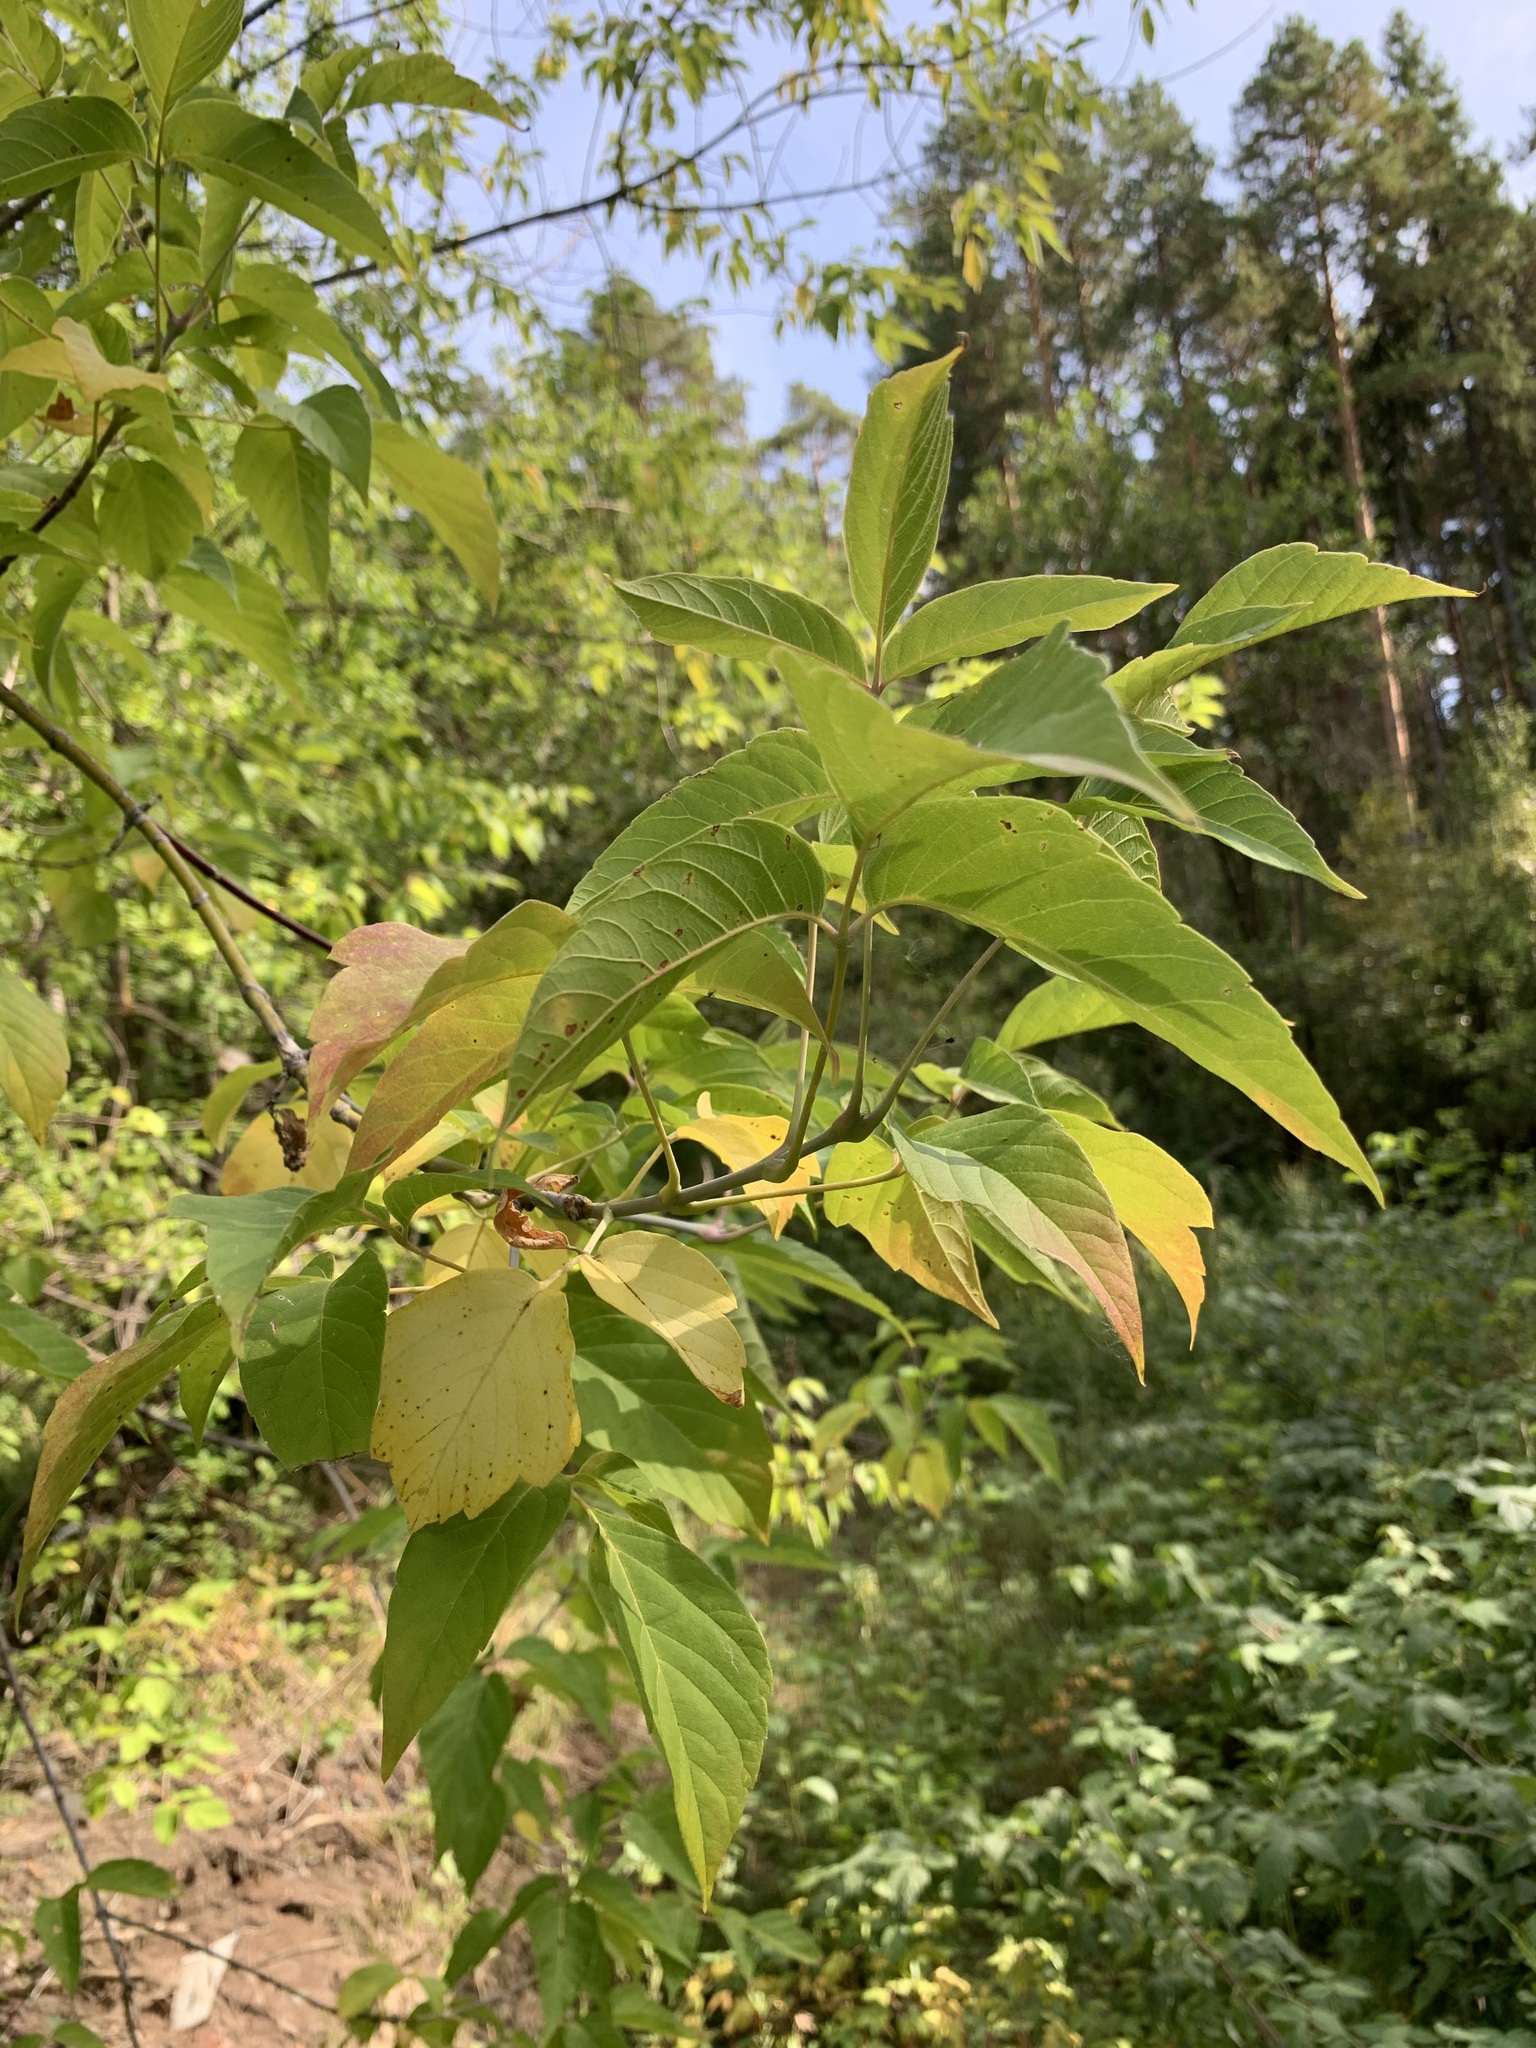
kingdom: Plantae
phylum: Tracheophyta
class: Magnoliopsida
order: Sapindales
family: Sapindaceae
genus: Acer
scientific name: Acer negundo
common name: Ashleaf maple
